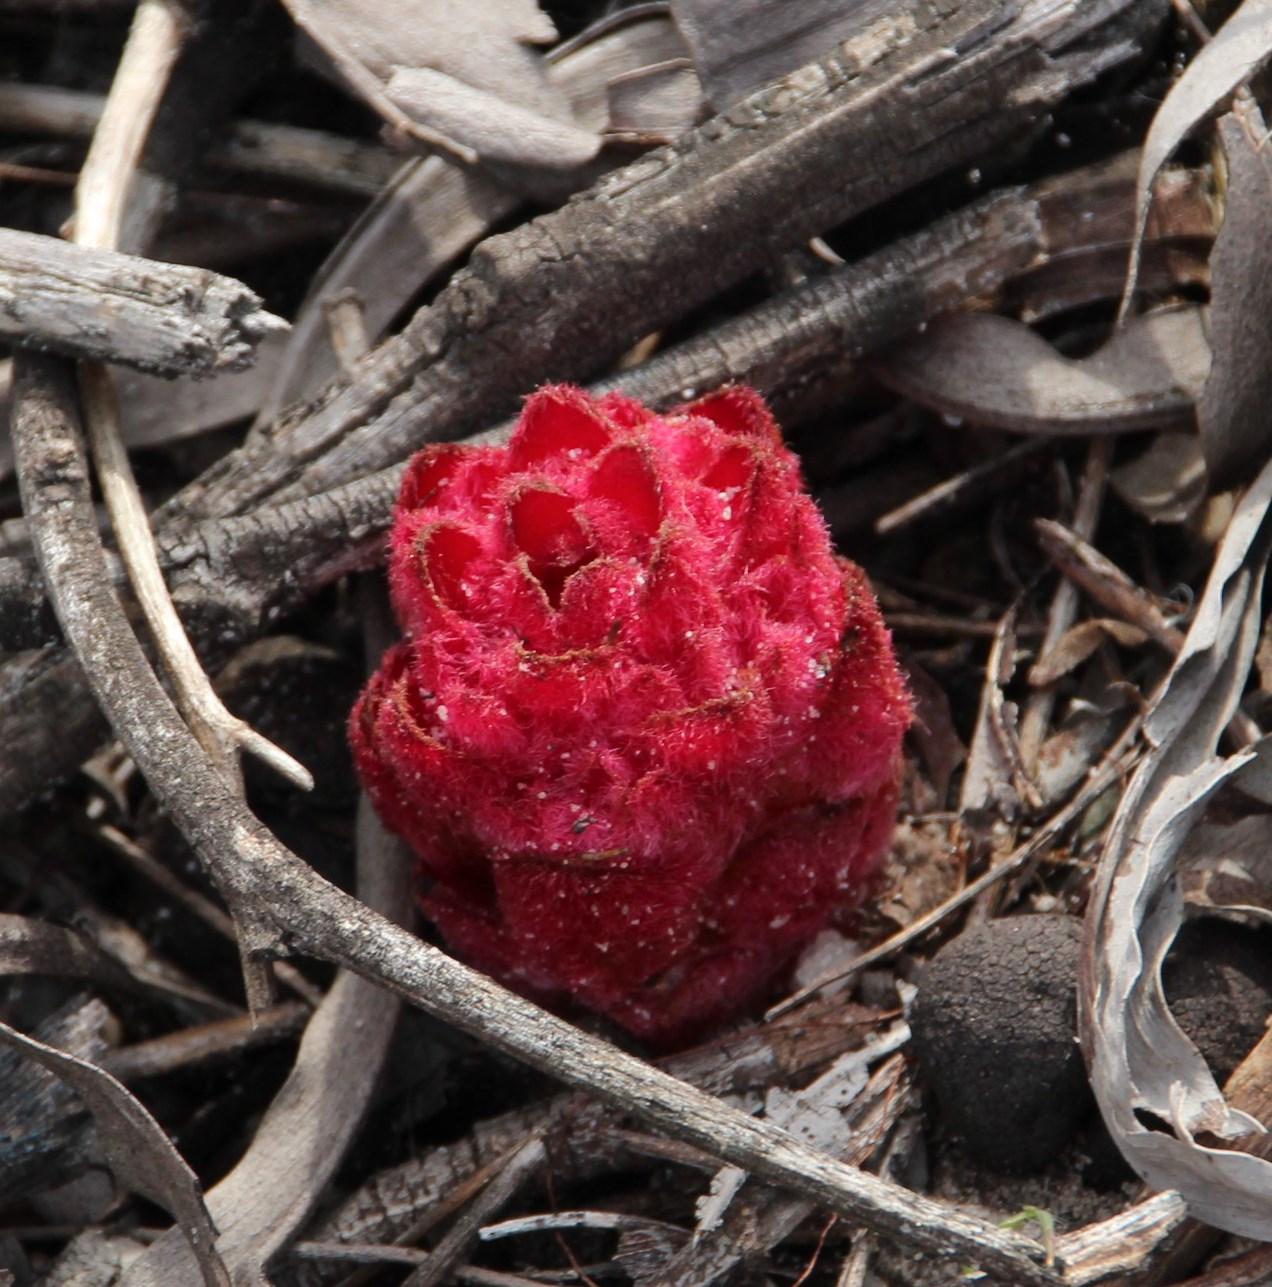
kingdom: Plantae
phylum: Tracheophyta
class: Magnoliopsida
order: Lamiales
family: Orobanchaceae
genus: Hyobanche
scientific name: Hyobanche sanguinea
